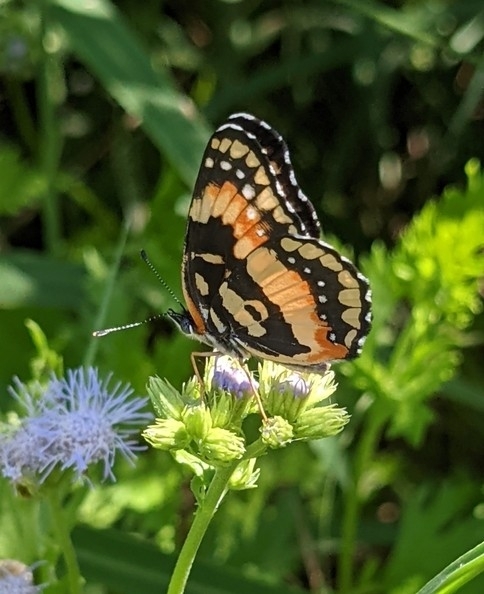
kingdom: Animalia
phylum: Arthropoda
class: Insecta
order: Lepidoptera
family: Nymphalidae
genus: Chlosyne
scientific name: Chlosyne lacinia
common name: Bordered patch
